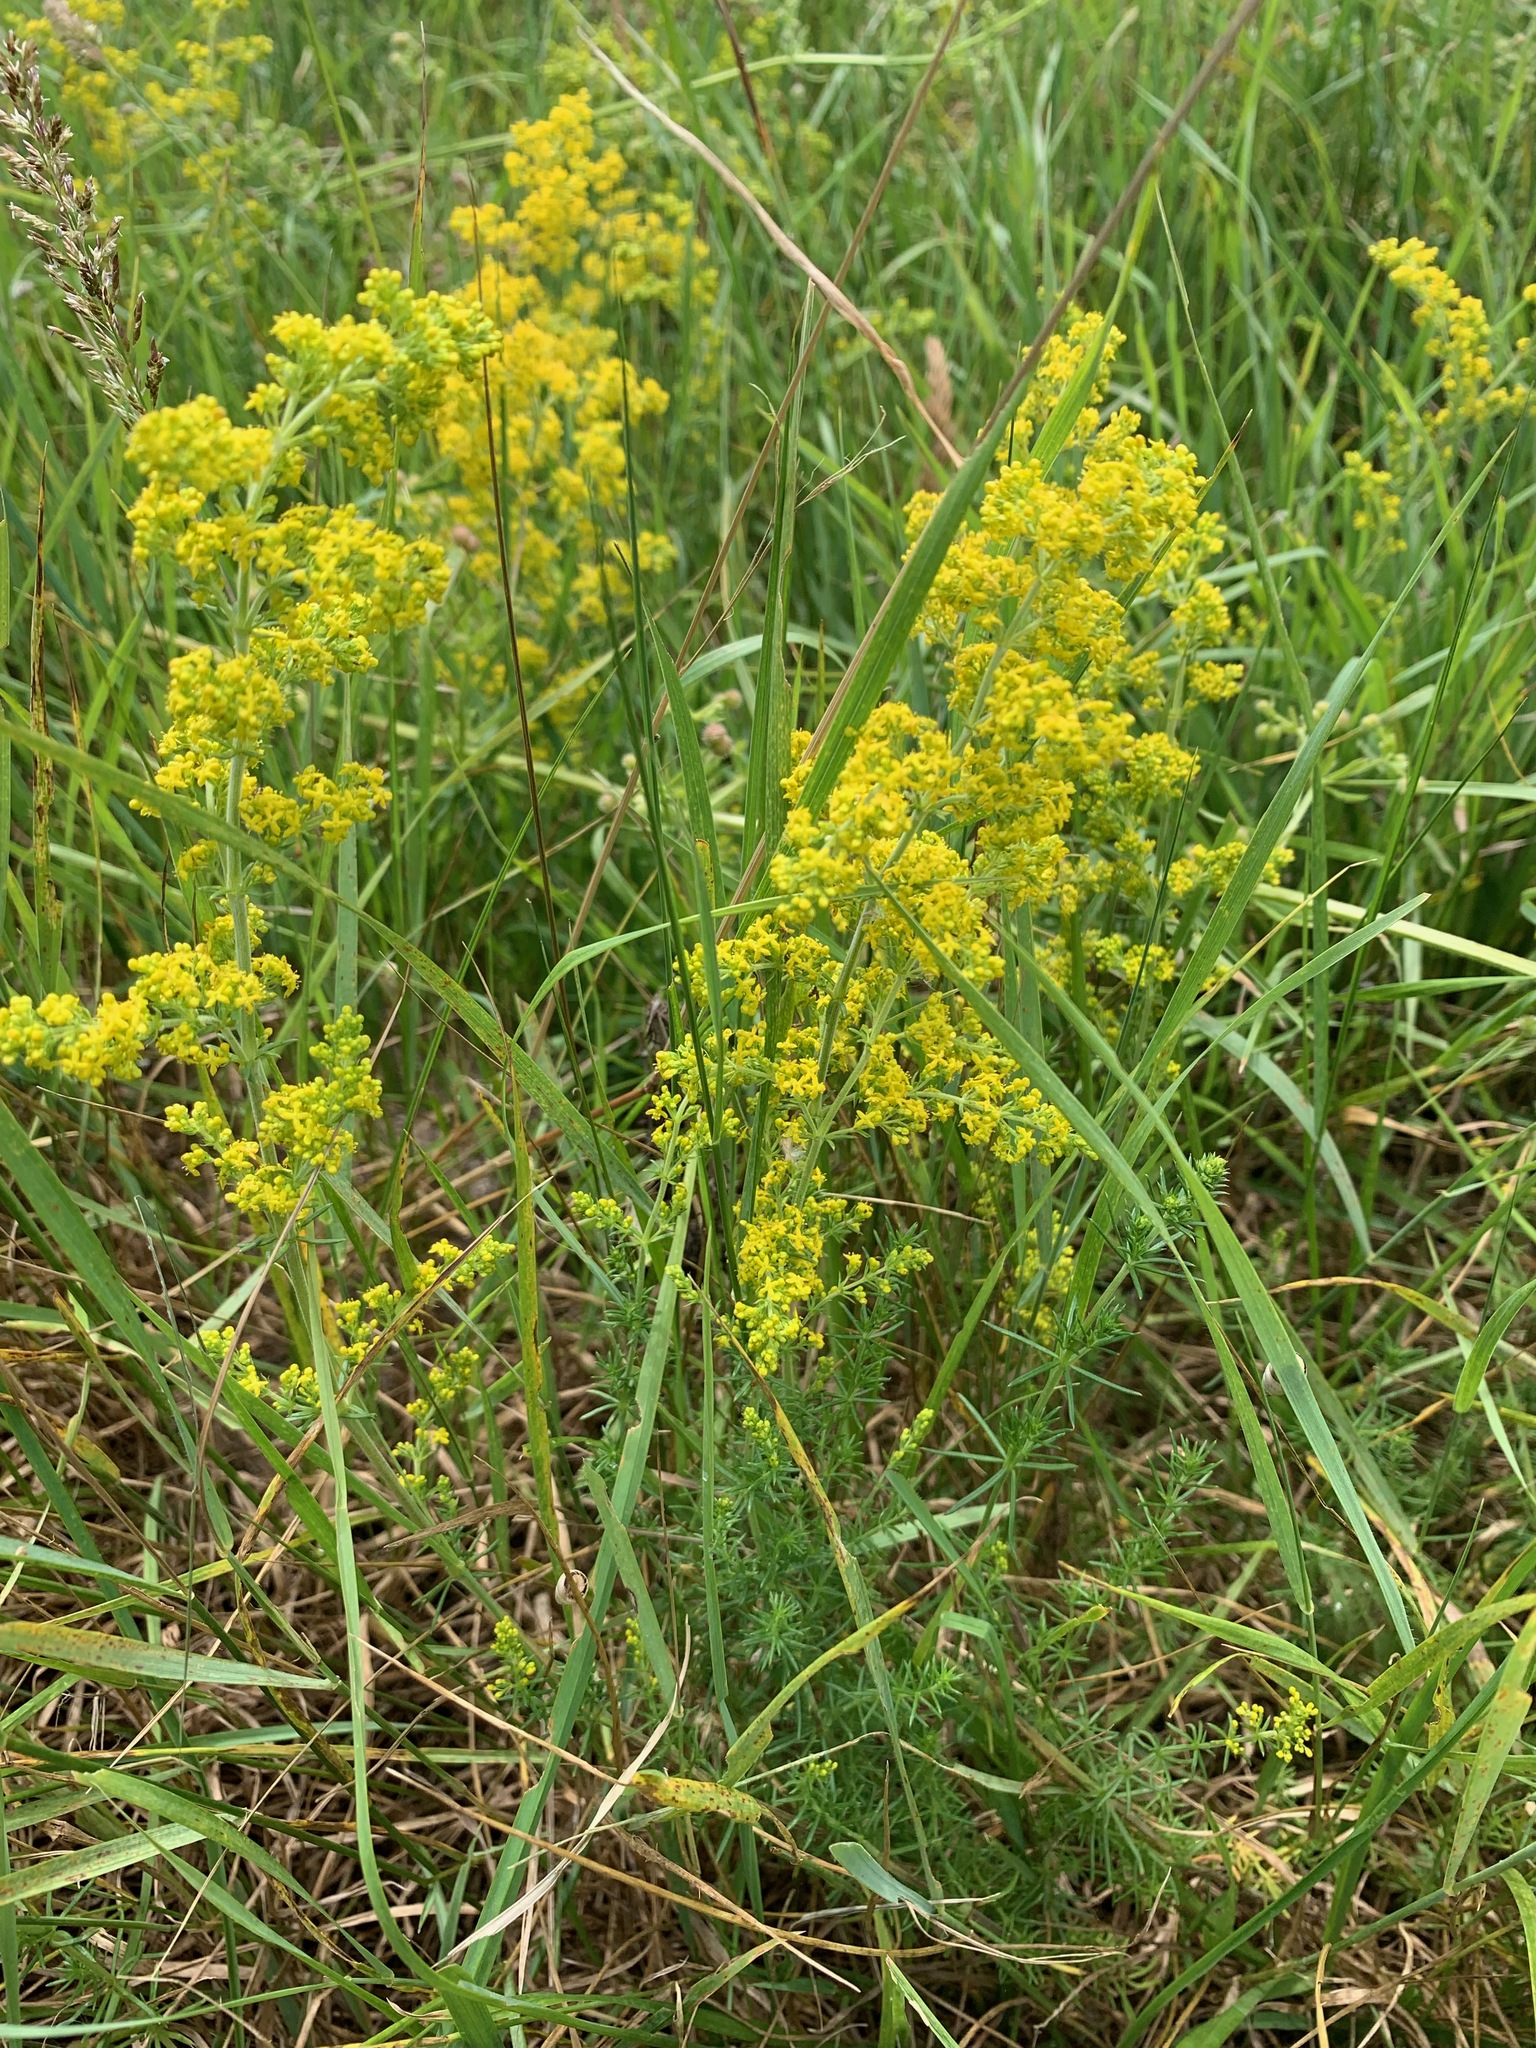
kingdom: Plantae
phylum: Tracheophyta
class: Magnoliopsida
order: Gentianales
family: Rubiaceae
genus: Galium
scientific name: Galium verum
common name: Lady's bedstraw
